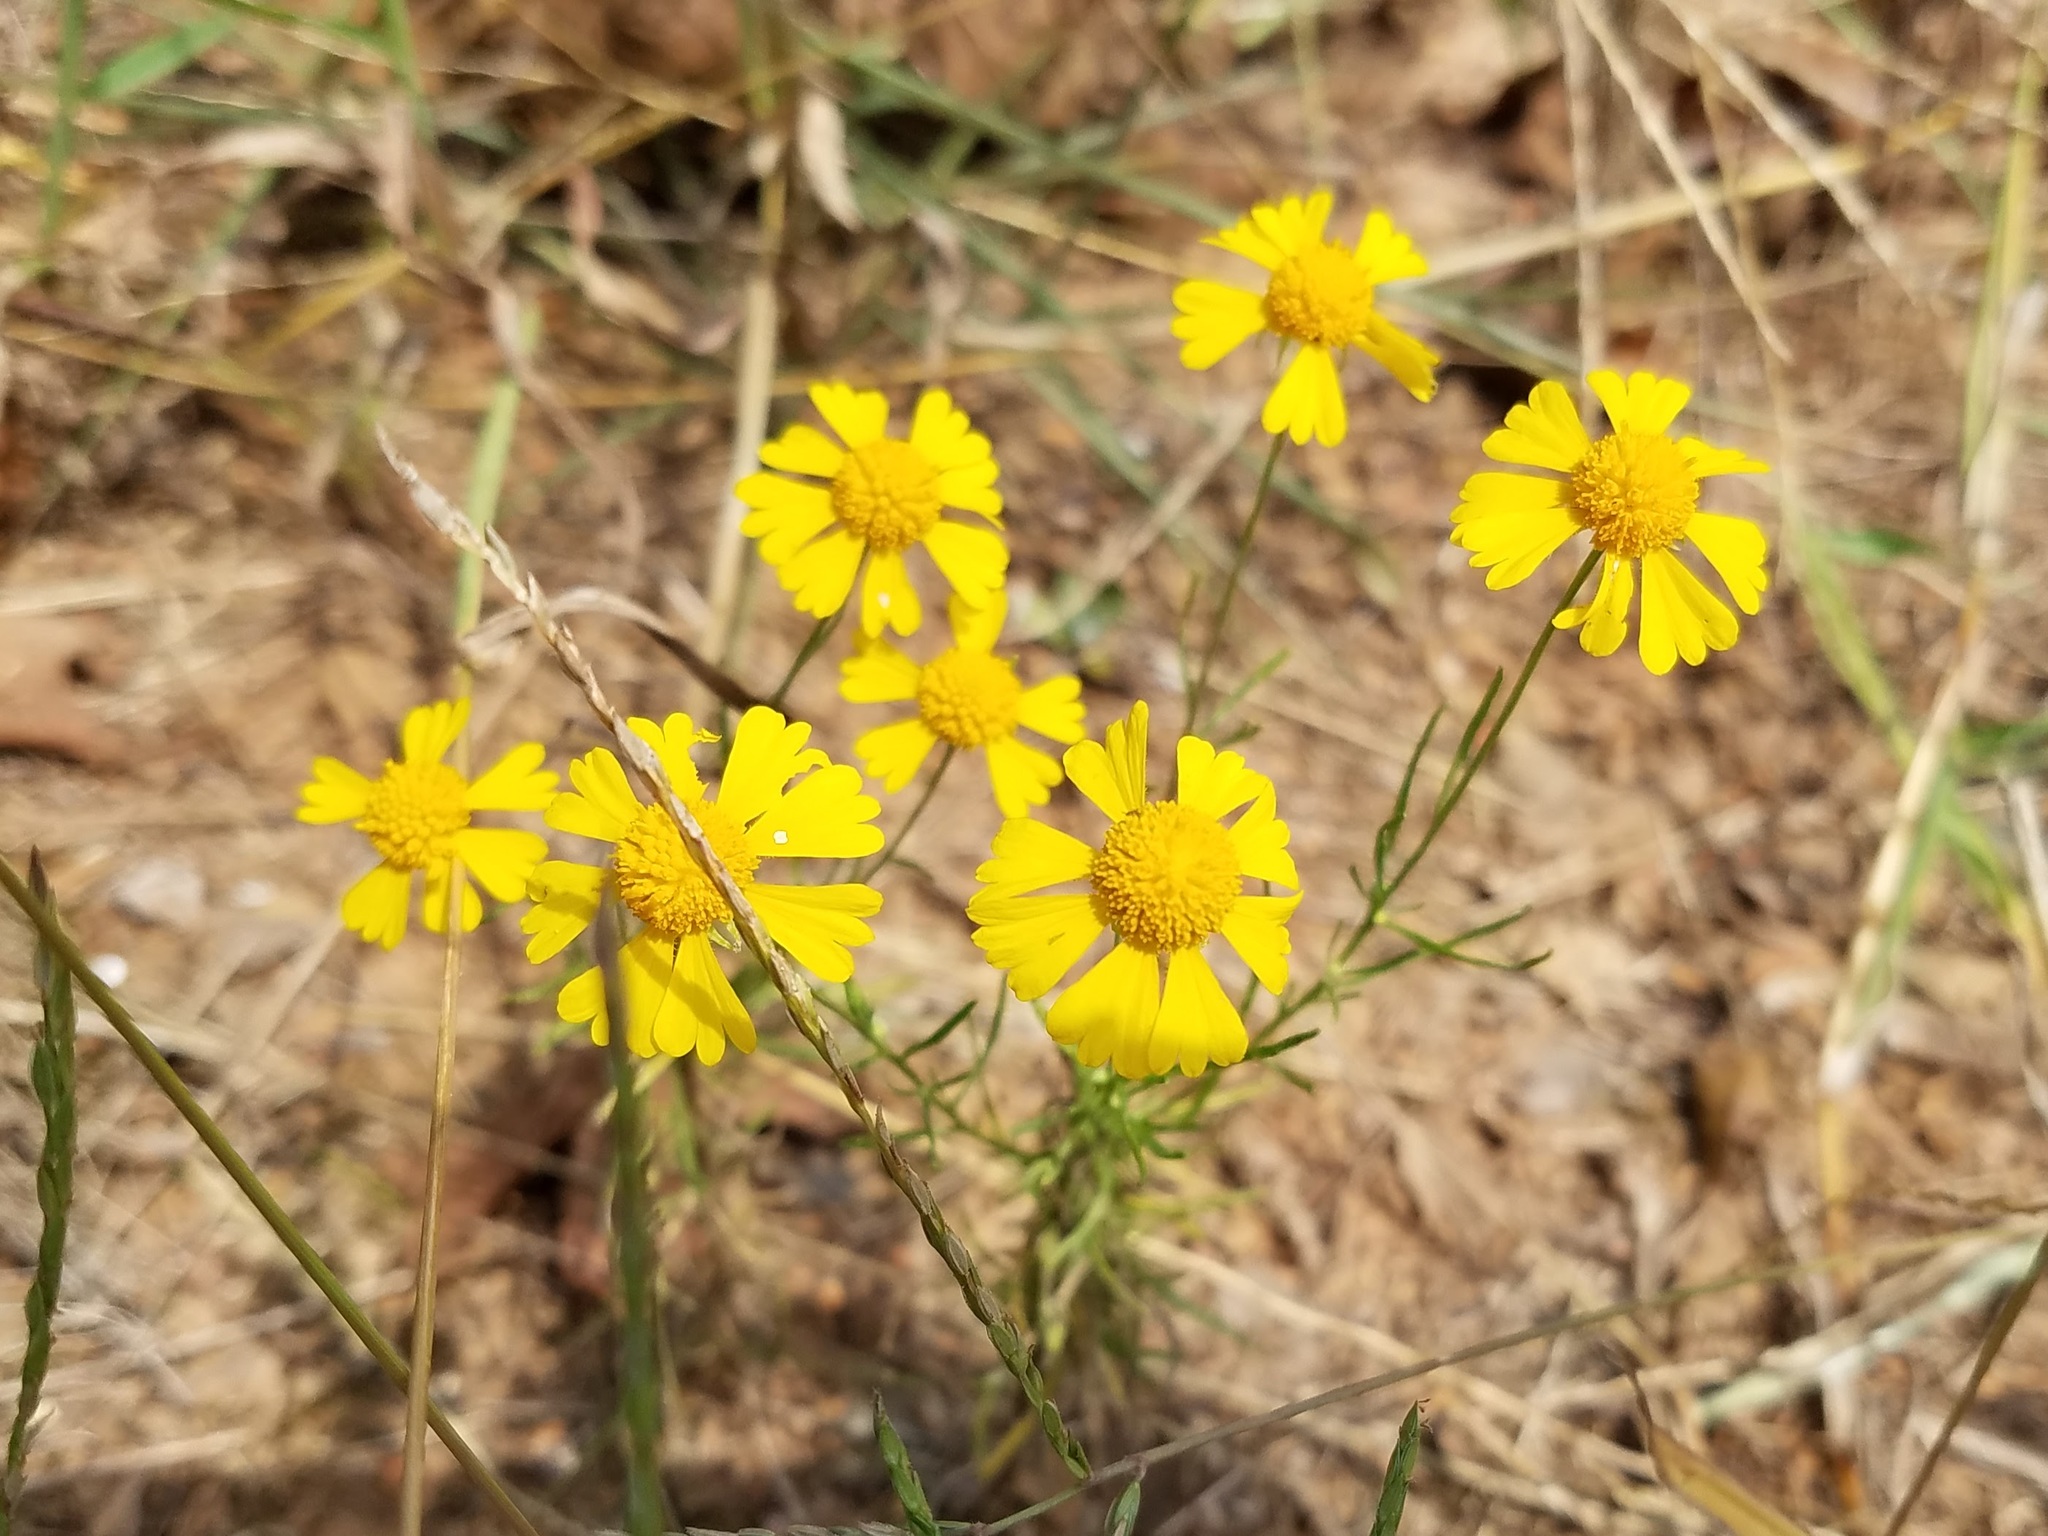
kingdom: Plantae
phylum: Tracheophyta
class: Magnoliopsida
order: Asterales
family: Asteraceae
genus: Helenium
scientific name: Helenium amarum
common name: Bitter sneezeweed
